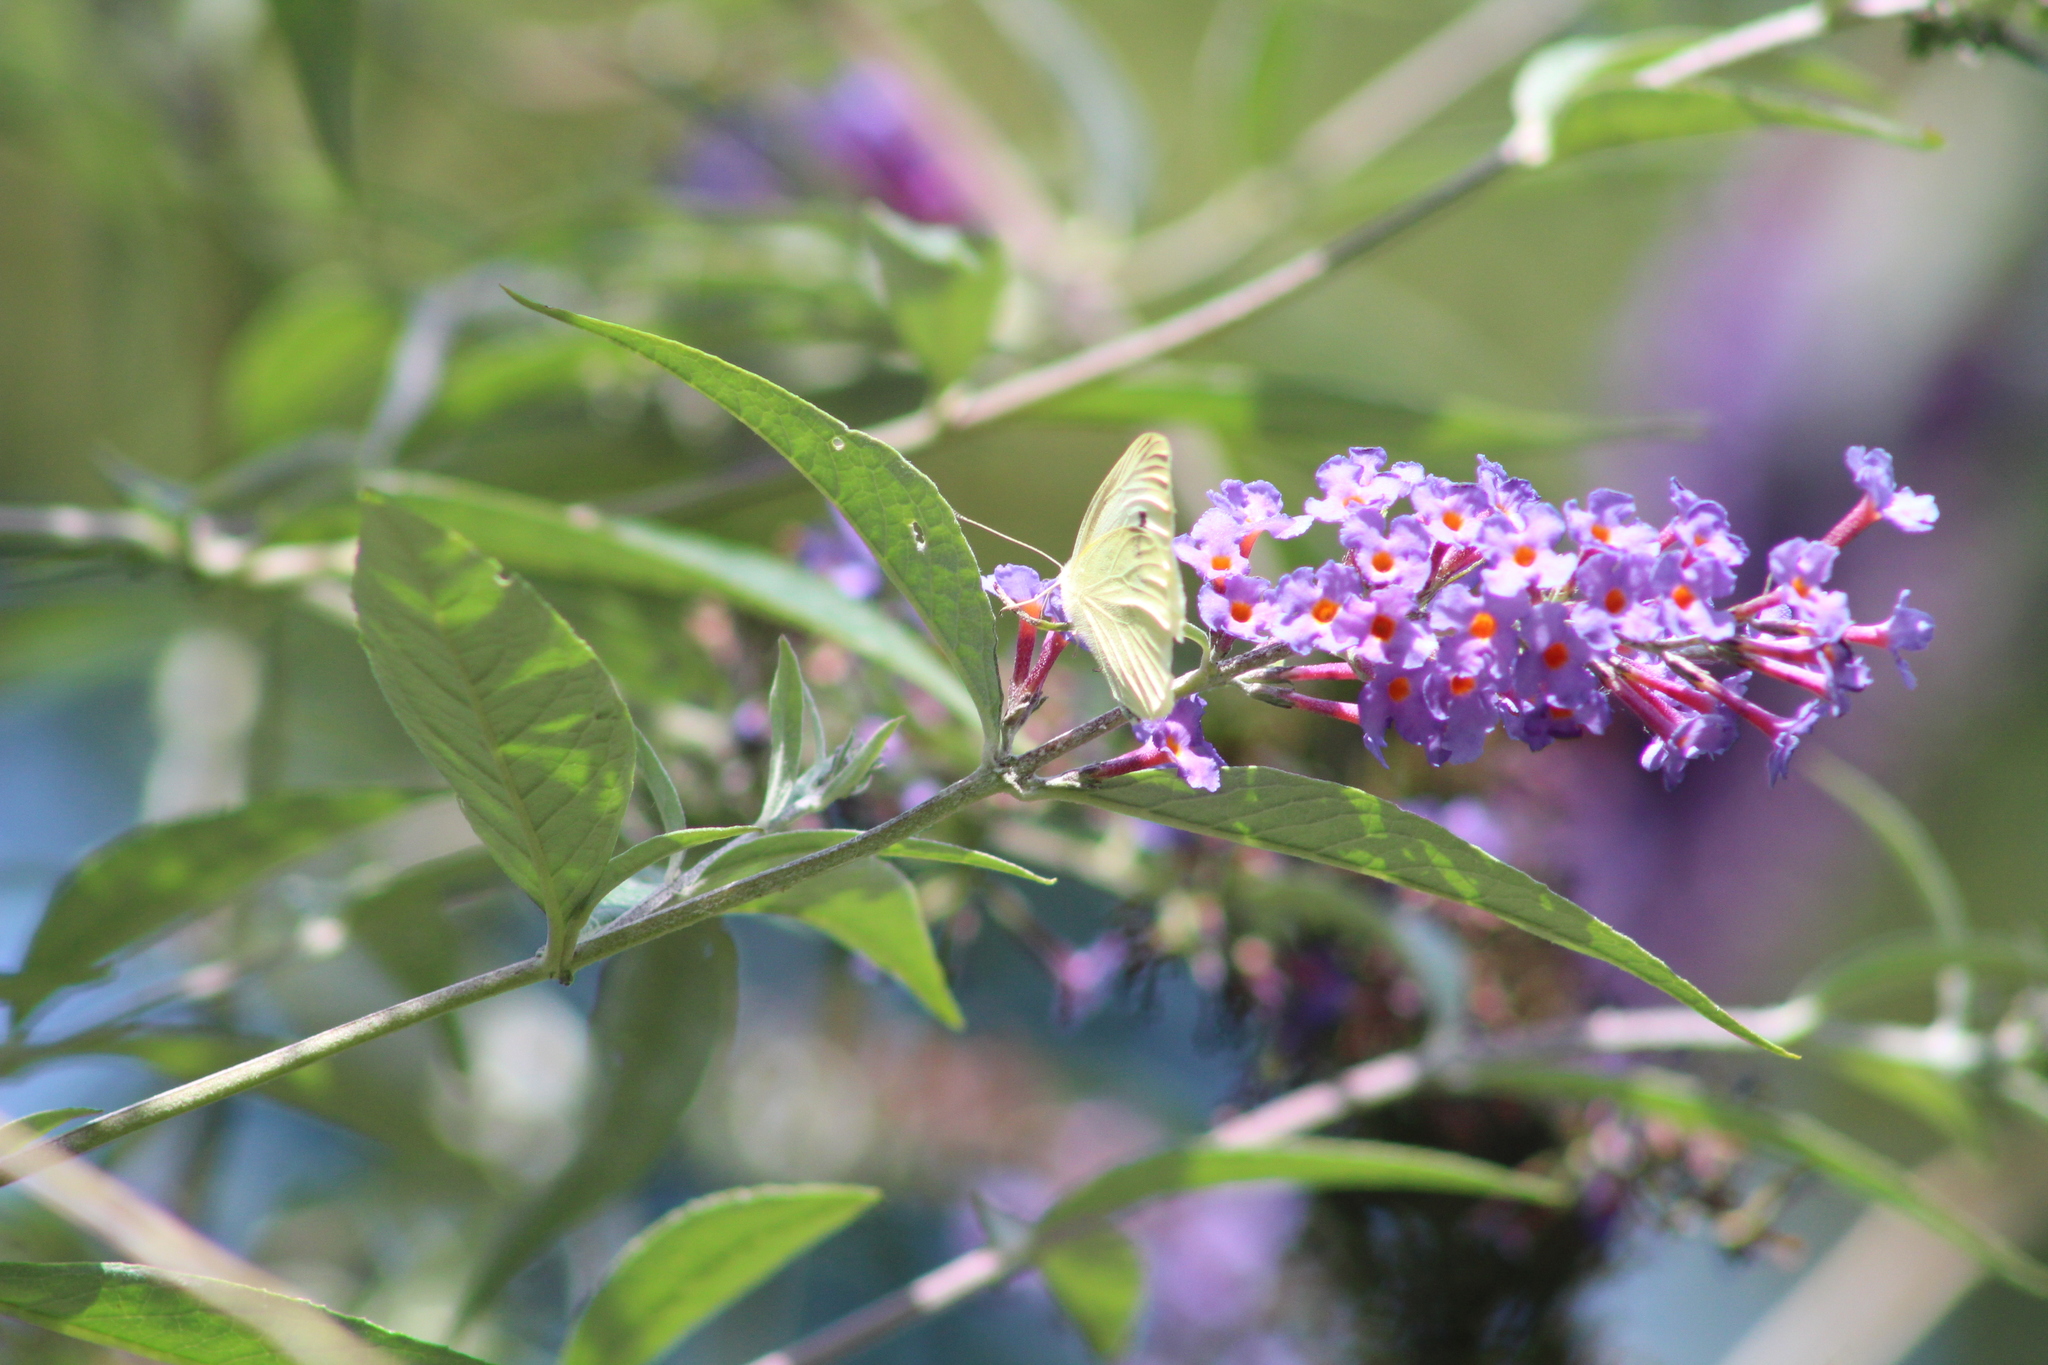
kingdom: Animalia
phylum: Arthropoda
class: Insecta
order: Lepidoptera
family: Pieridae
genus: Pieris
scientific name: Pieris rapae
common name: Small white
